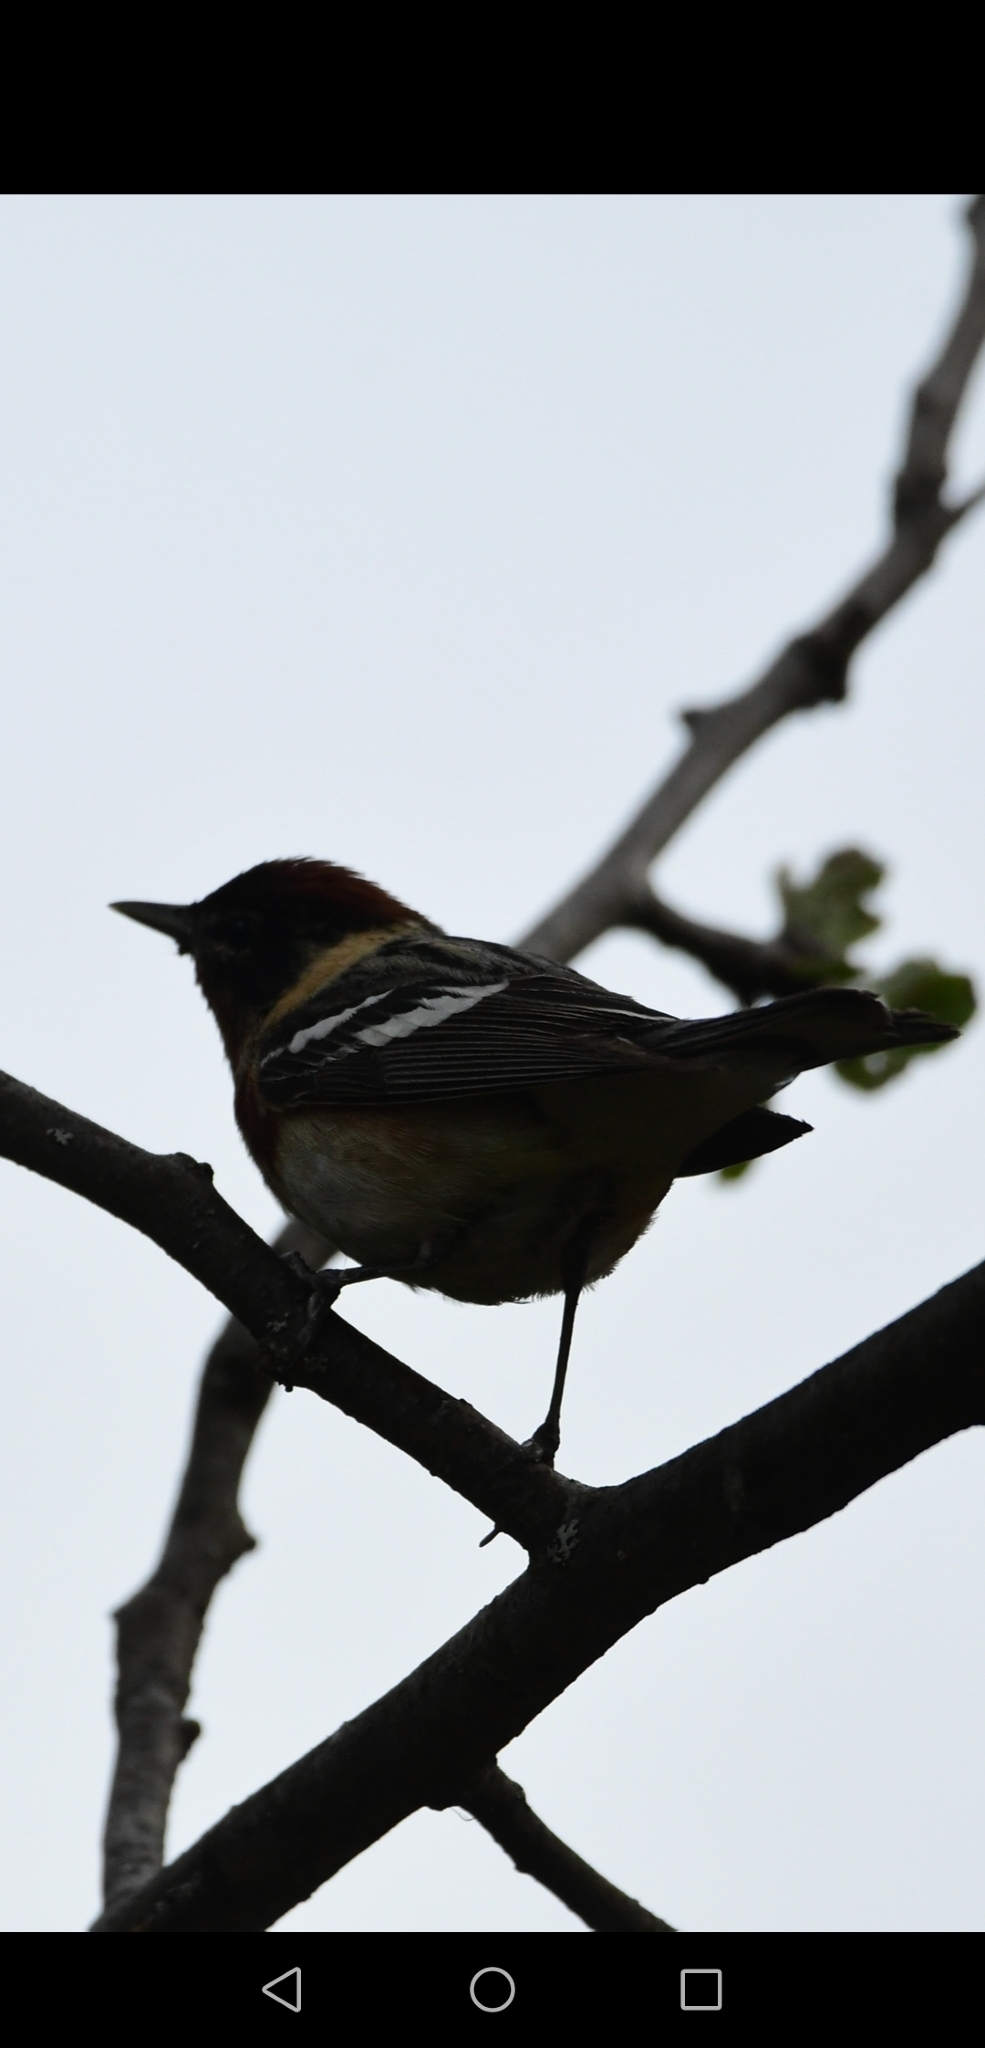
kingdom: Animalia
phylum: Chordata
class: Aves
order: Passeriformes
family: Parulidae
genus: Setophaga
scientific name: Setophaga castanea
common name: Bay-breasted warbler
